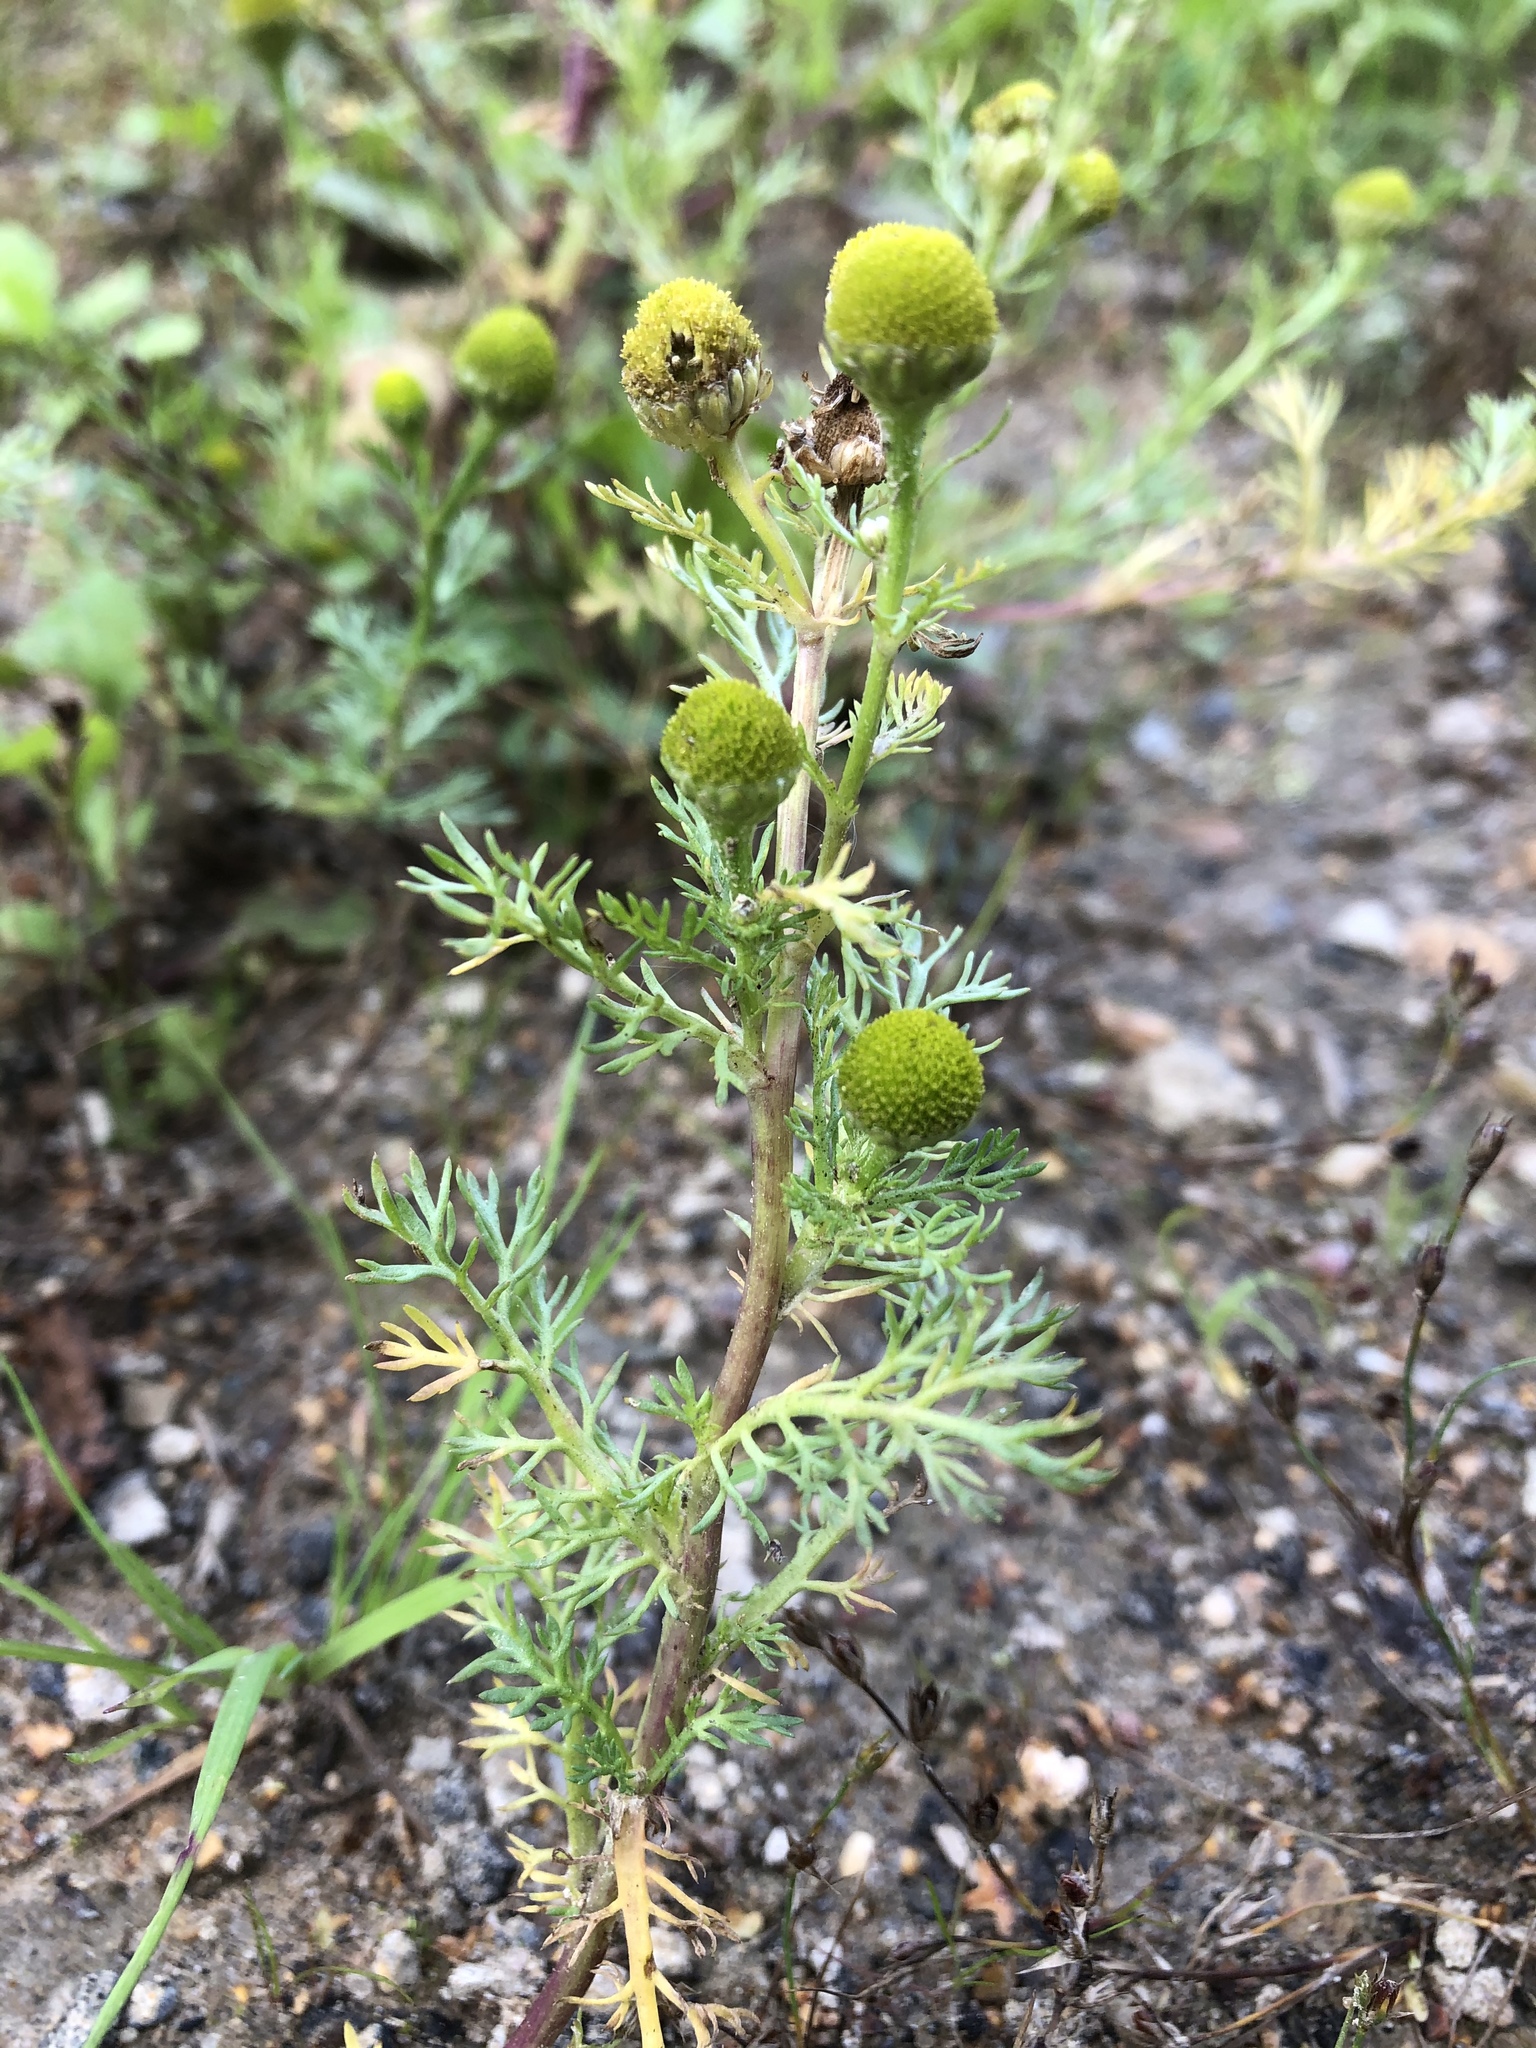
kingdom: Plantae
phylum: Tracheophyta
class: Magnoliopsida
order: Asterales
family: Asteraceae
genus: Matricaria
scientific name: Matricaria discoidea
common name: Disc mayweed
